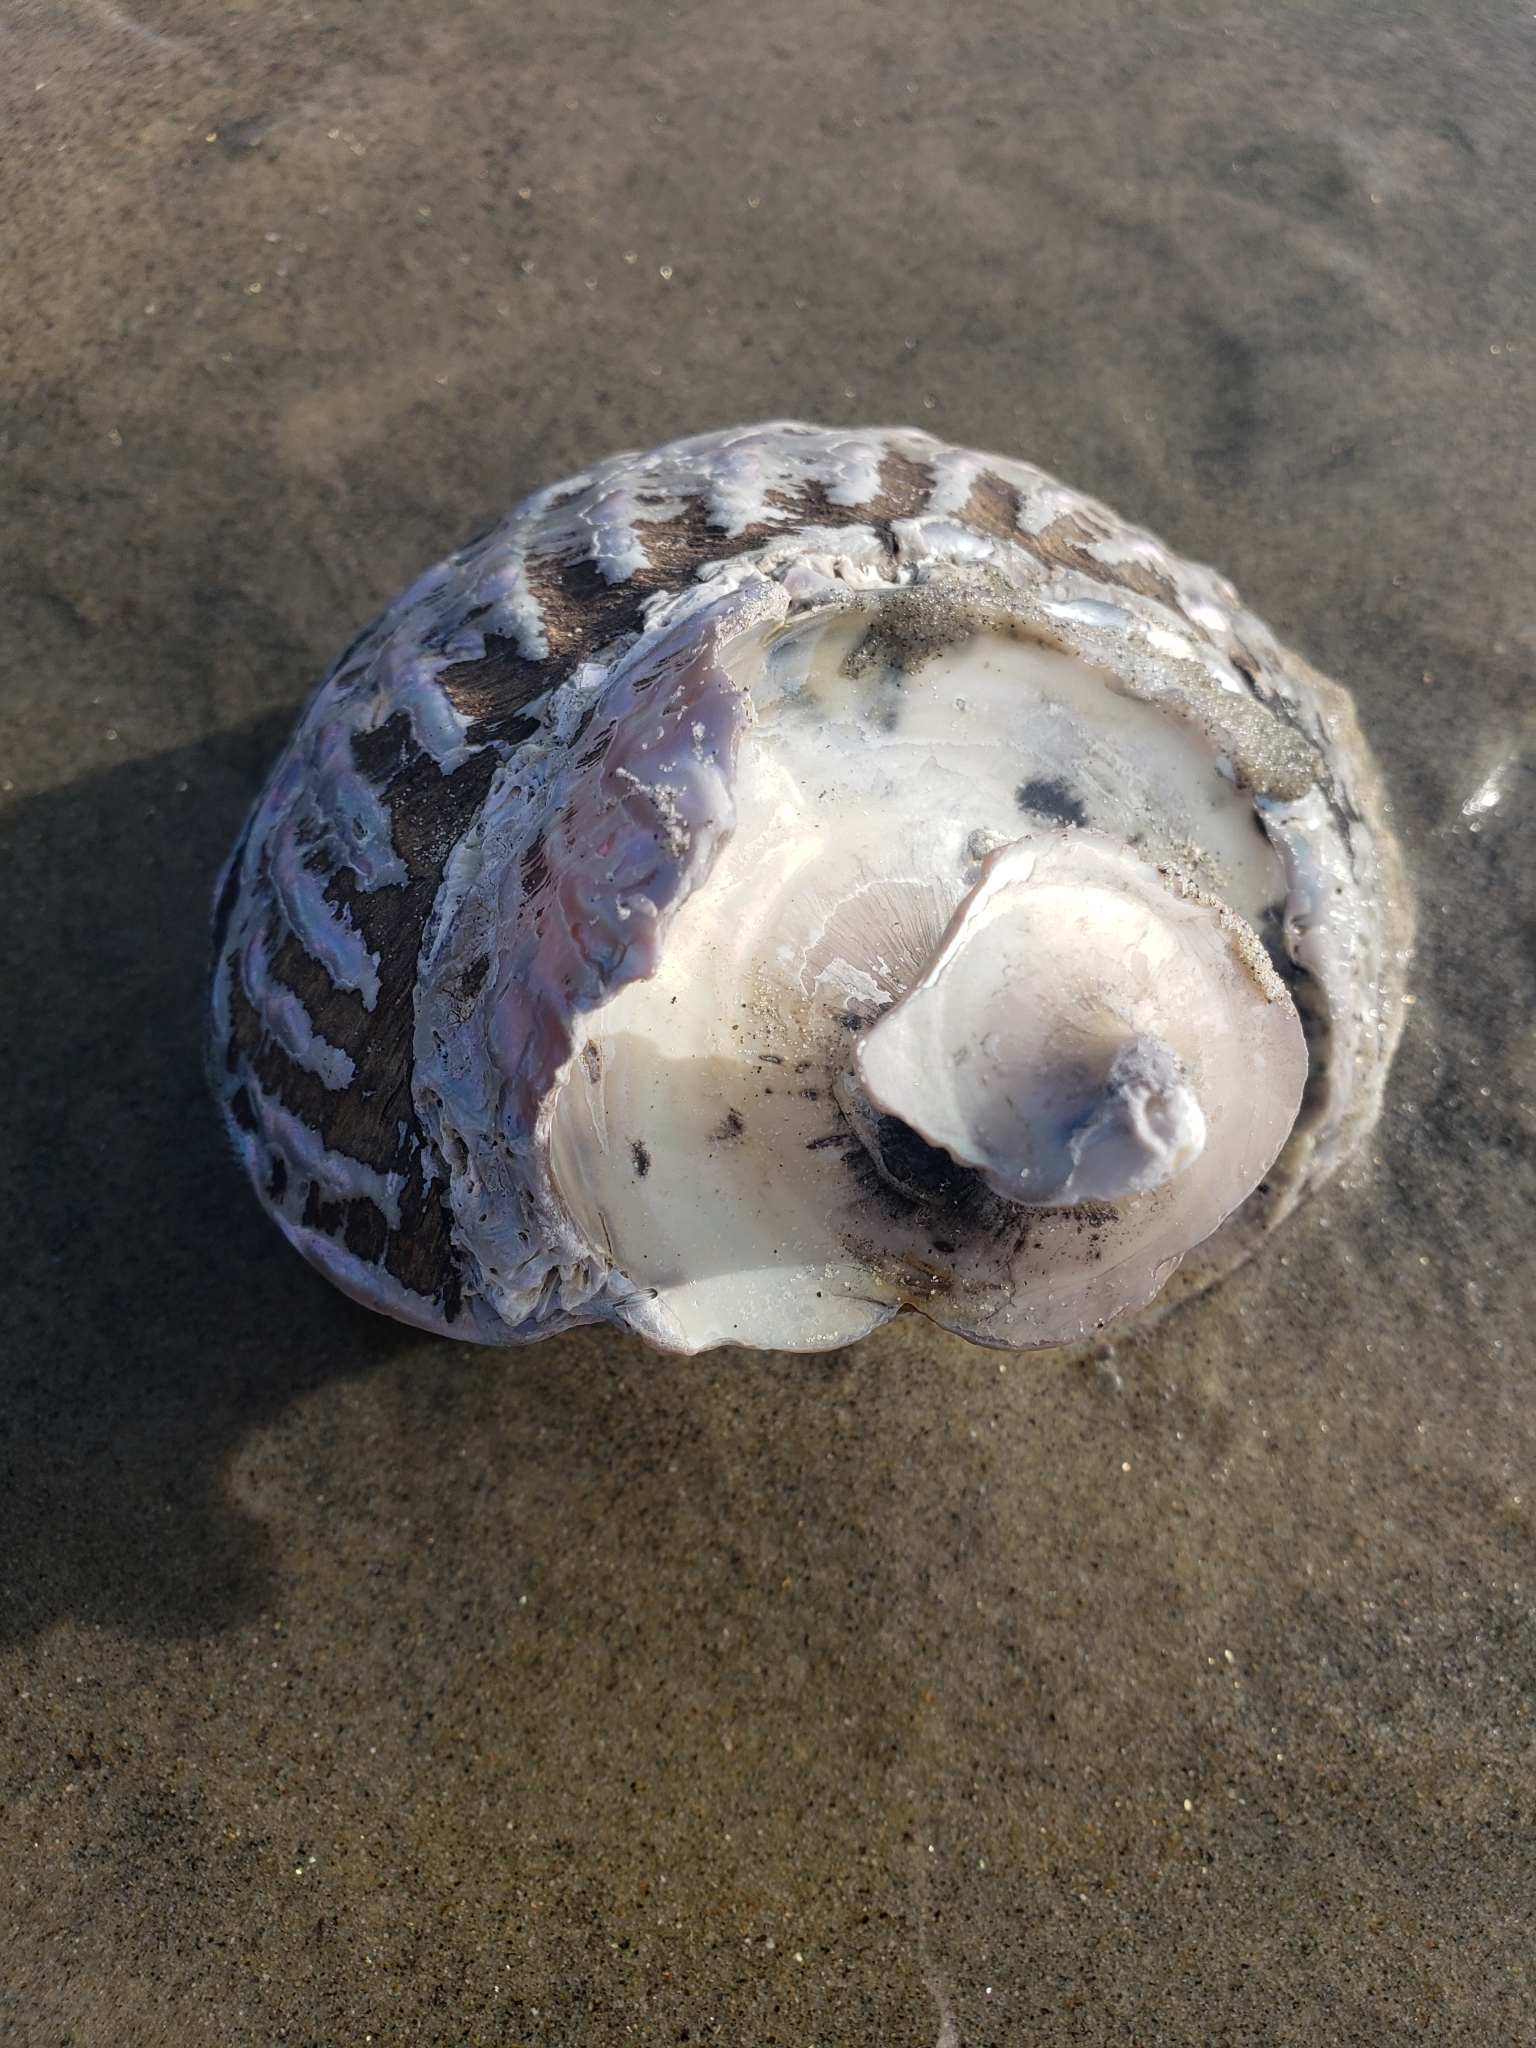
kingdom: Animalia
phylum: Mollusca
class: Gastropoda
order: Trochida
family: Turbinidae
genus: Megastraea
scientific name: Megastraea undosa
